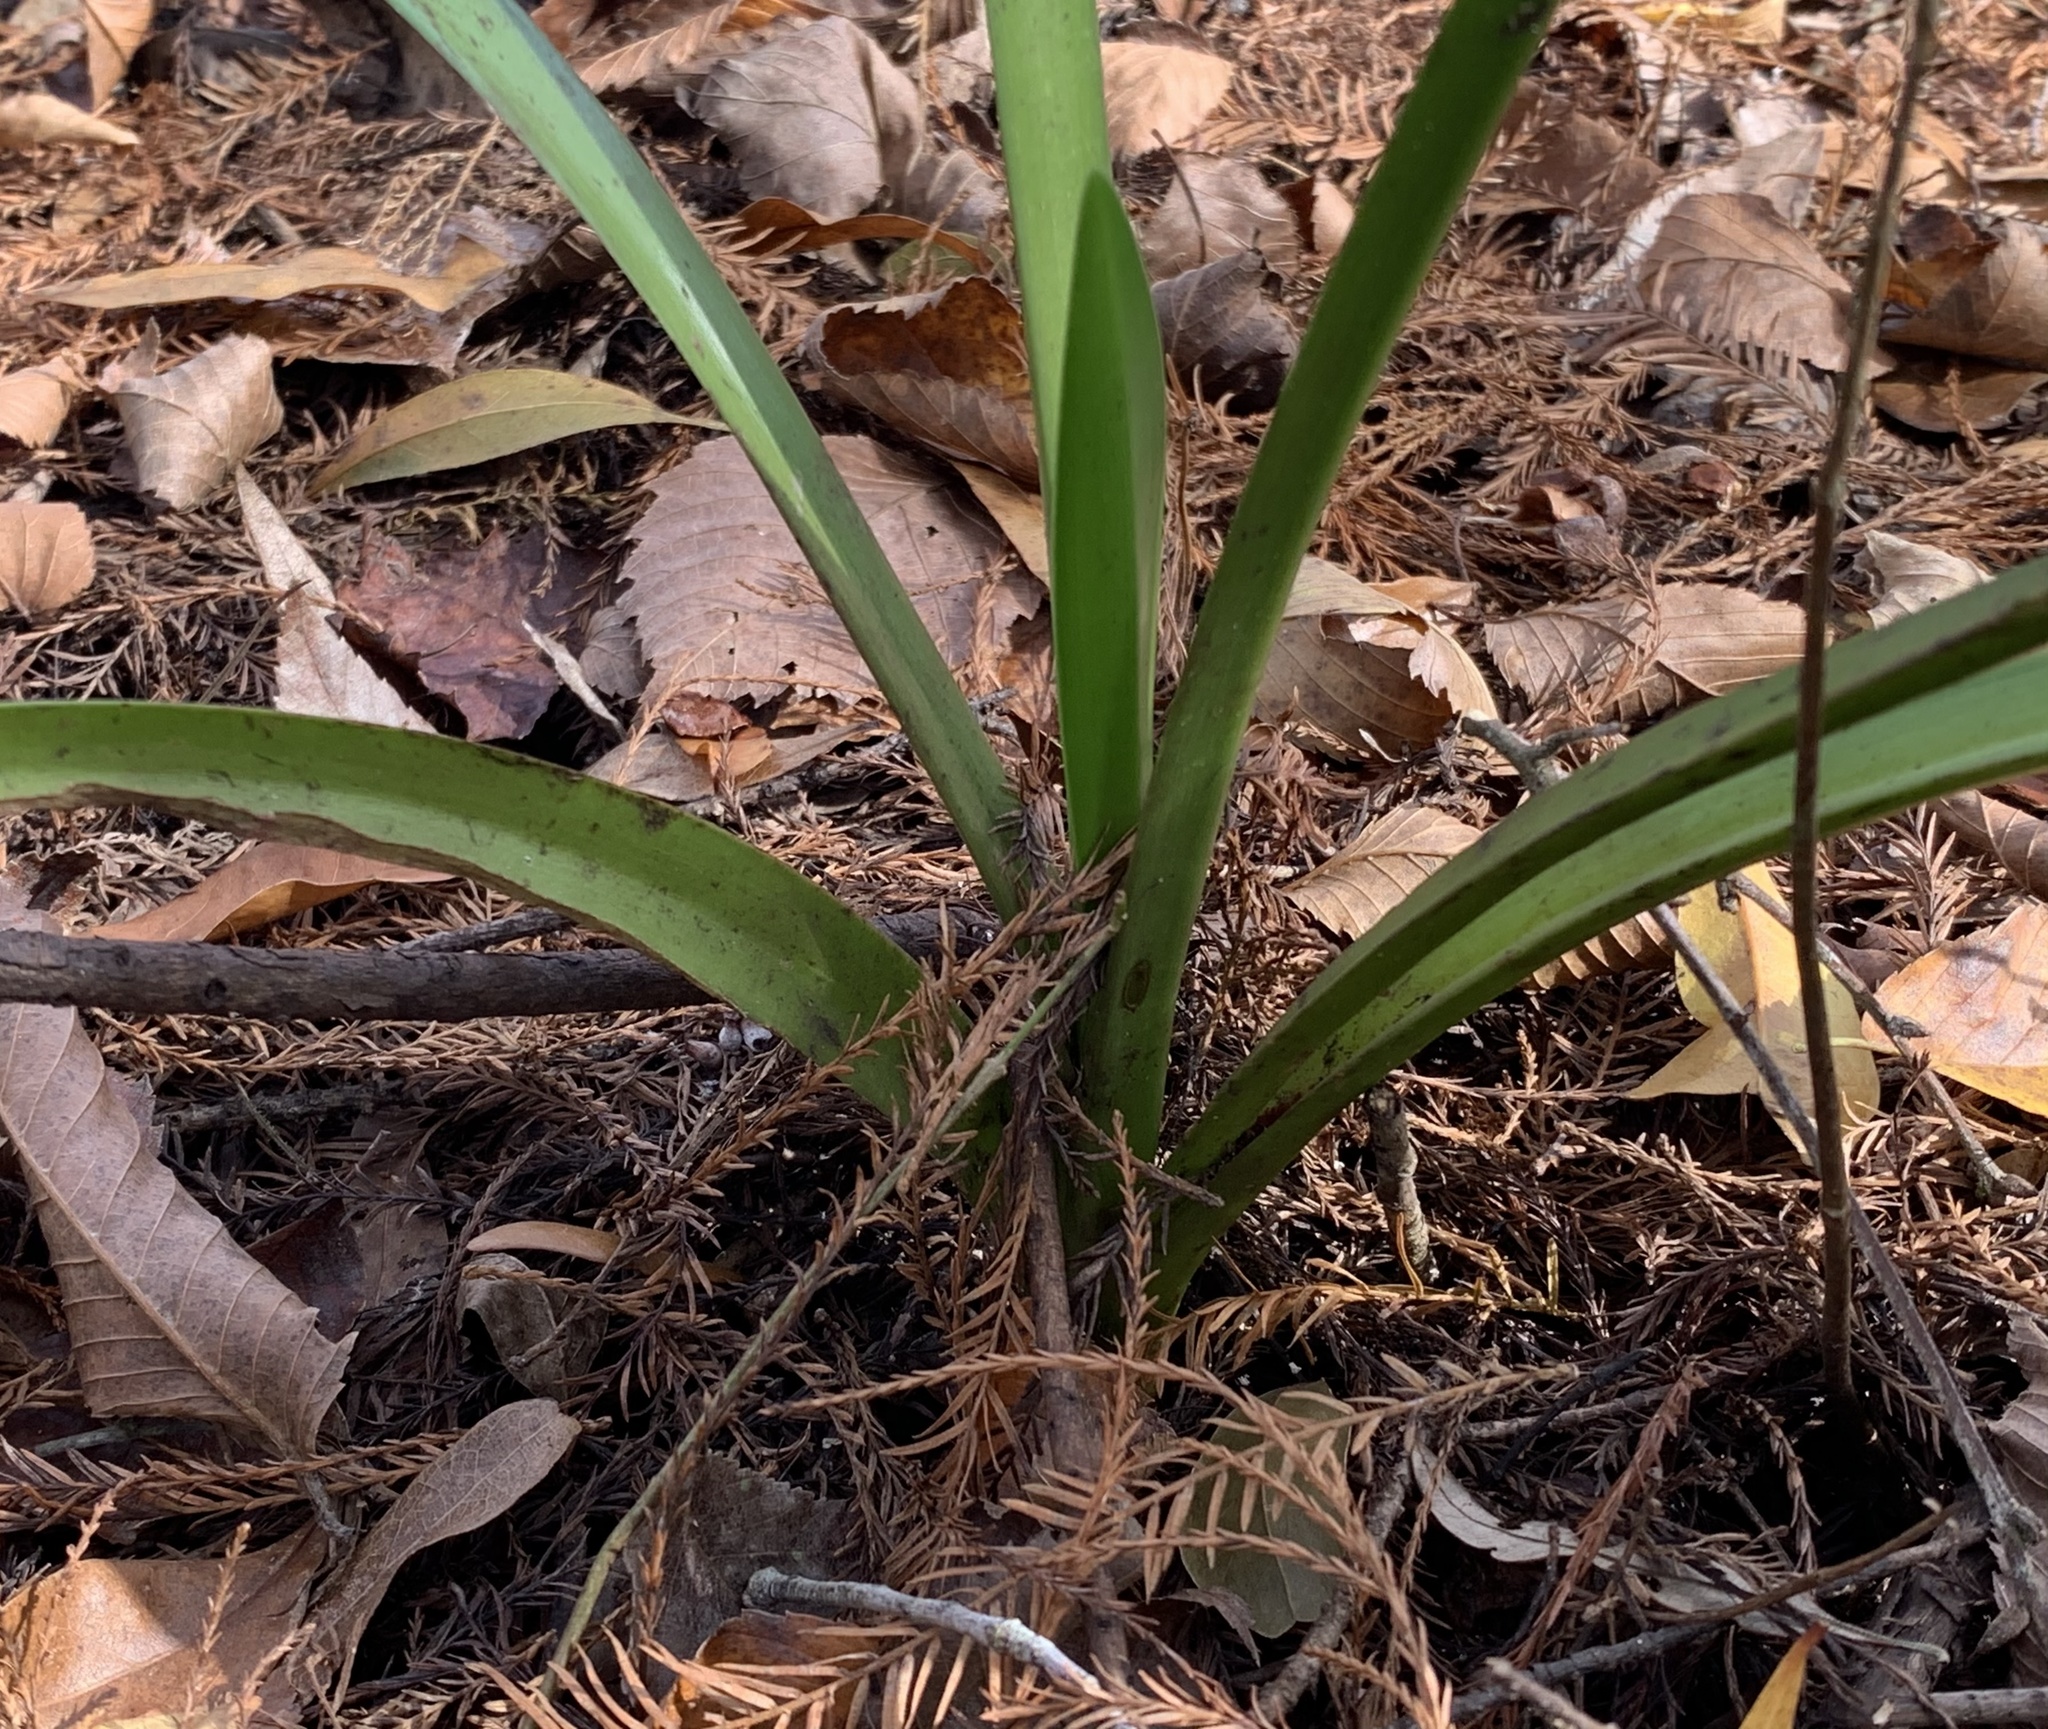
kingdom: Plantae
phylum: Tracheophyta
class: Liliopsida
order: Asparagales
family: Amaryllidaceae
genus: Crinum
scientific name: Crinum americanum
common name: Florida swamp-lily
